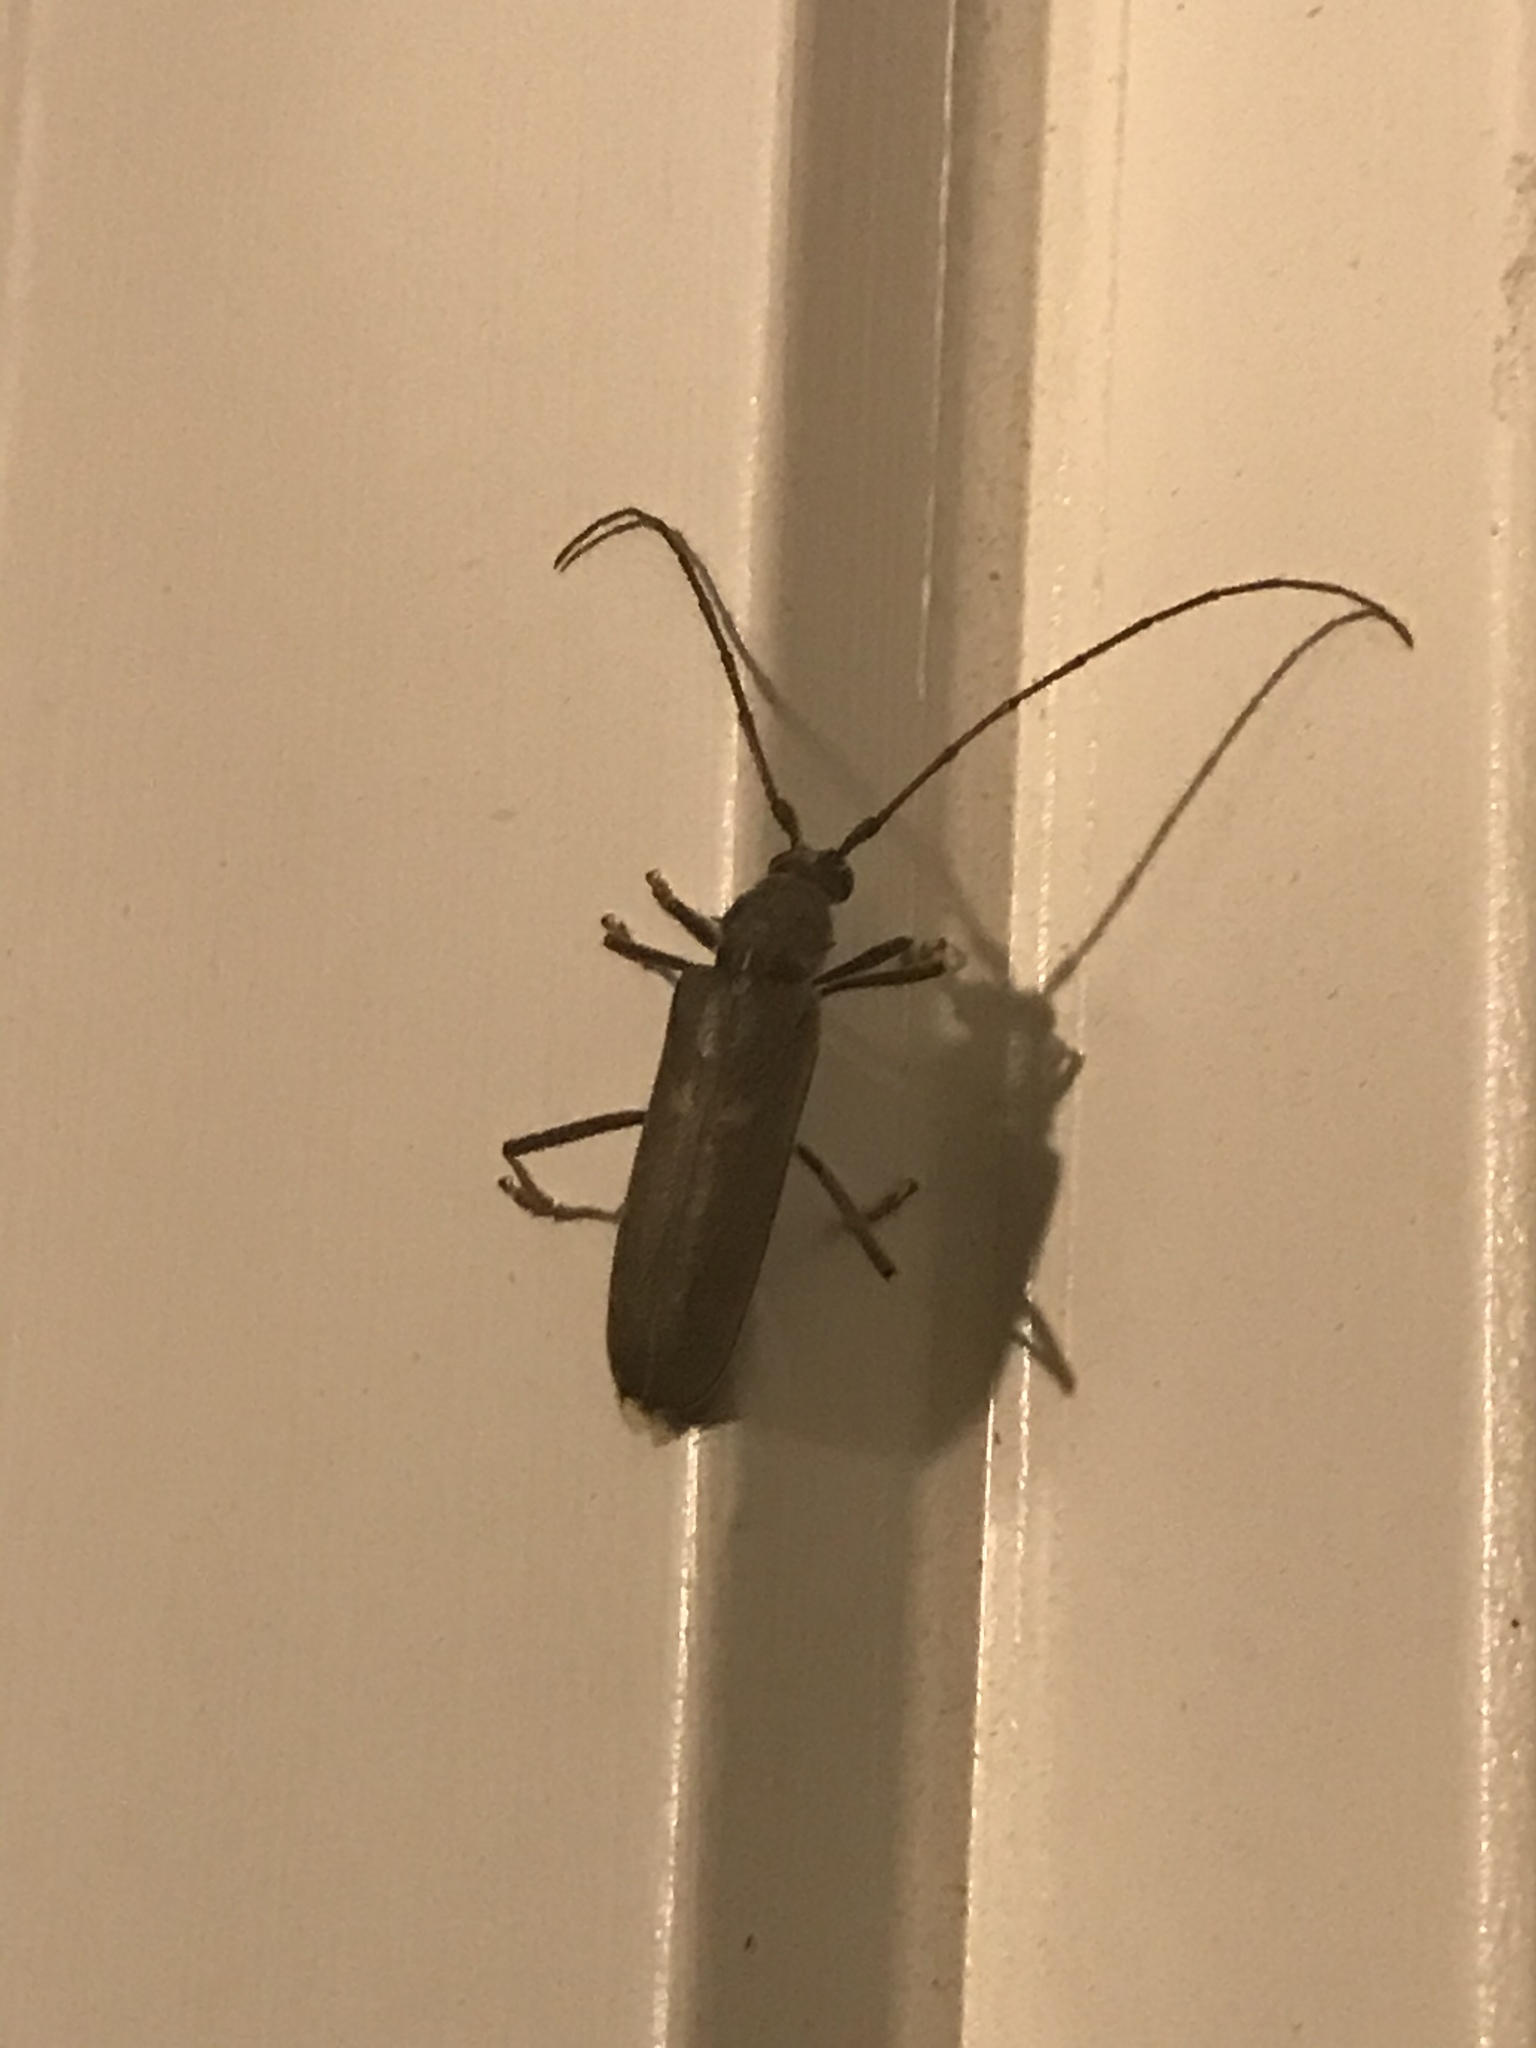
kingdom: Animalia
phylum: Arthropoda
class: Insecta
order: Coleoptera
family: Cerambycidae
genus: Knulliana
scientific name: Knulliana cincta
